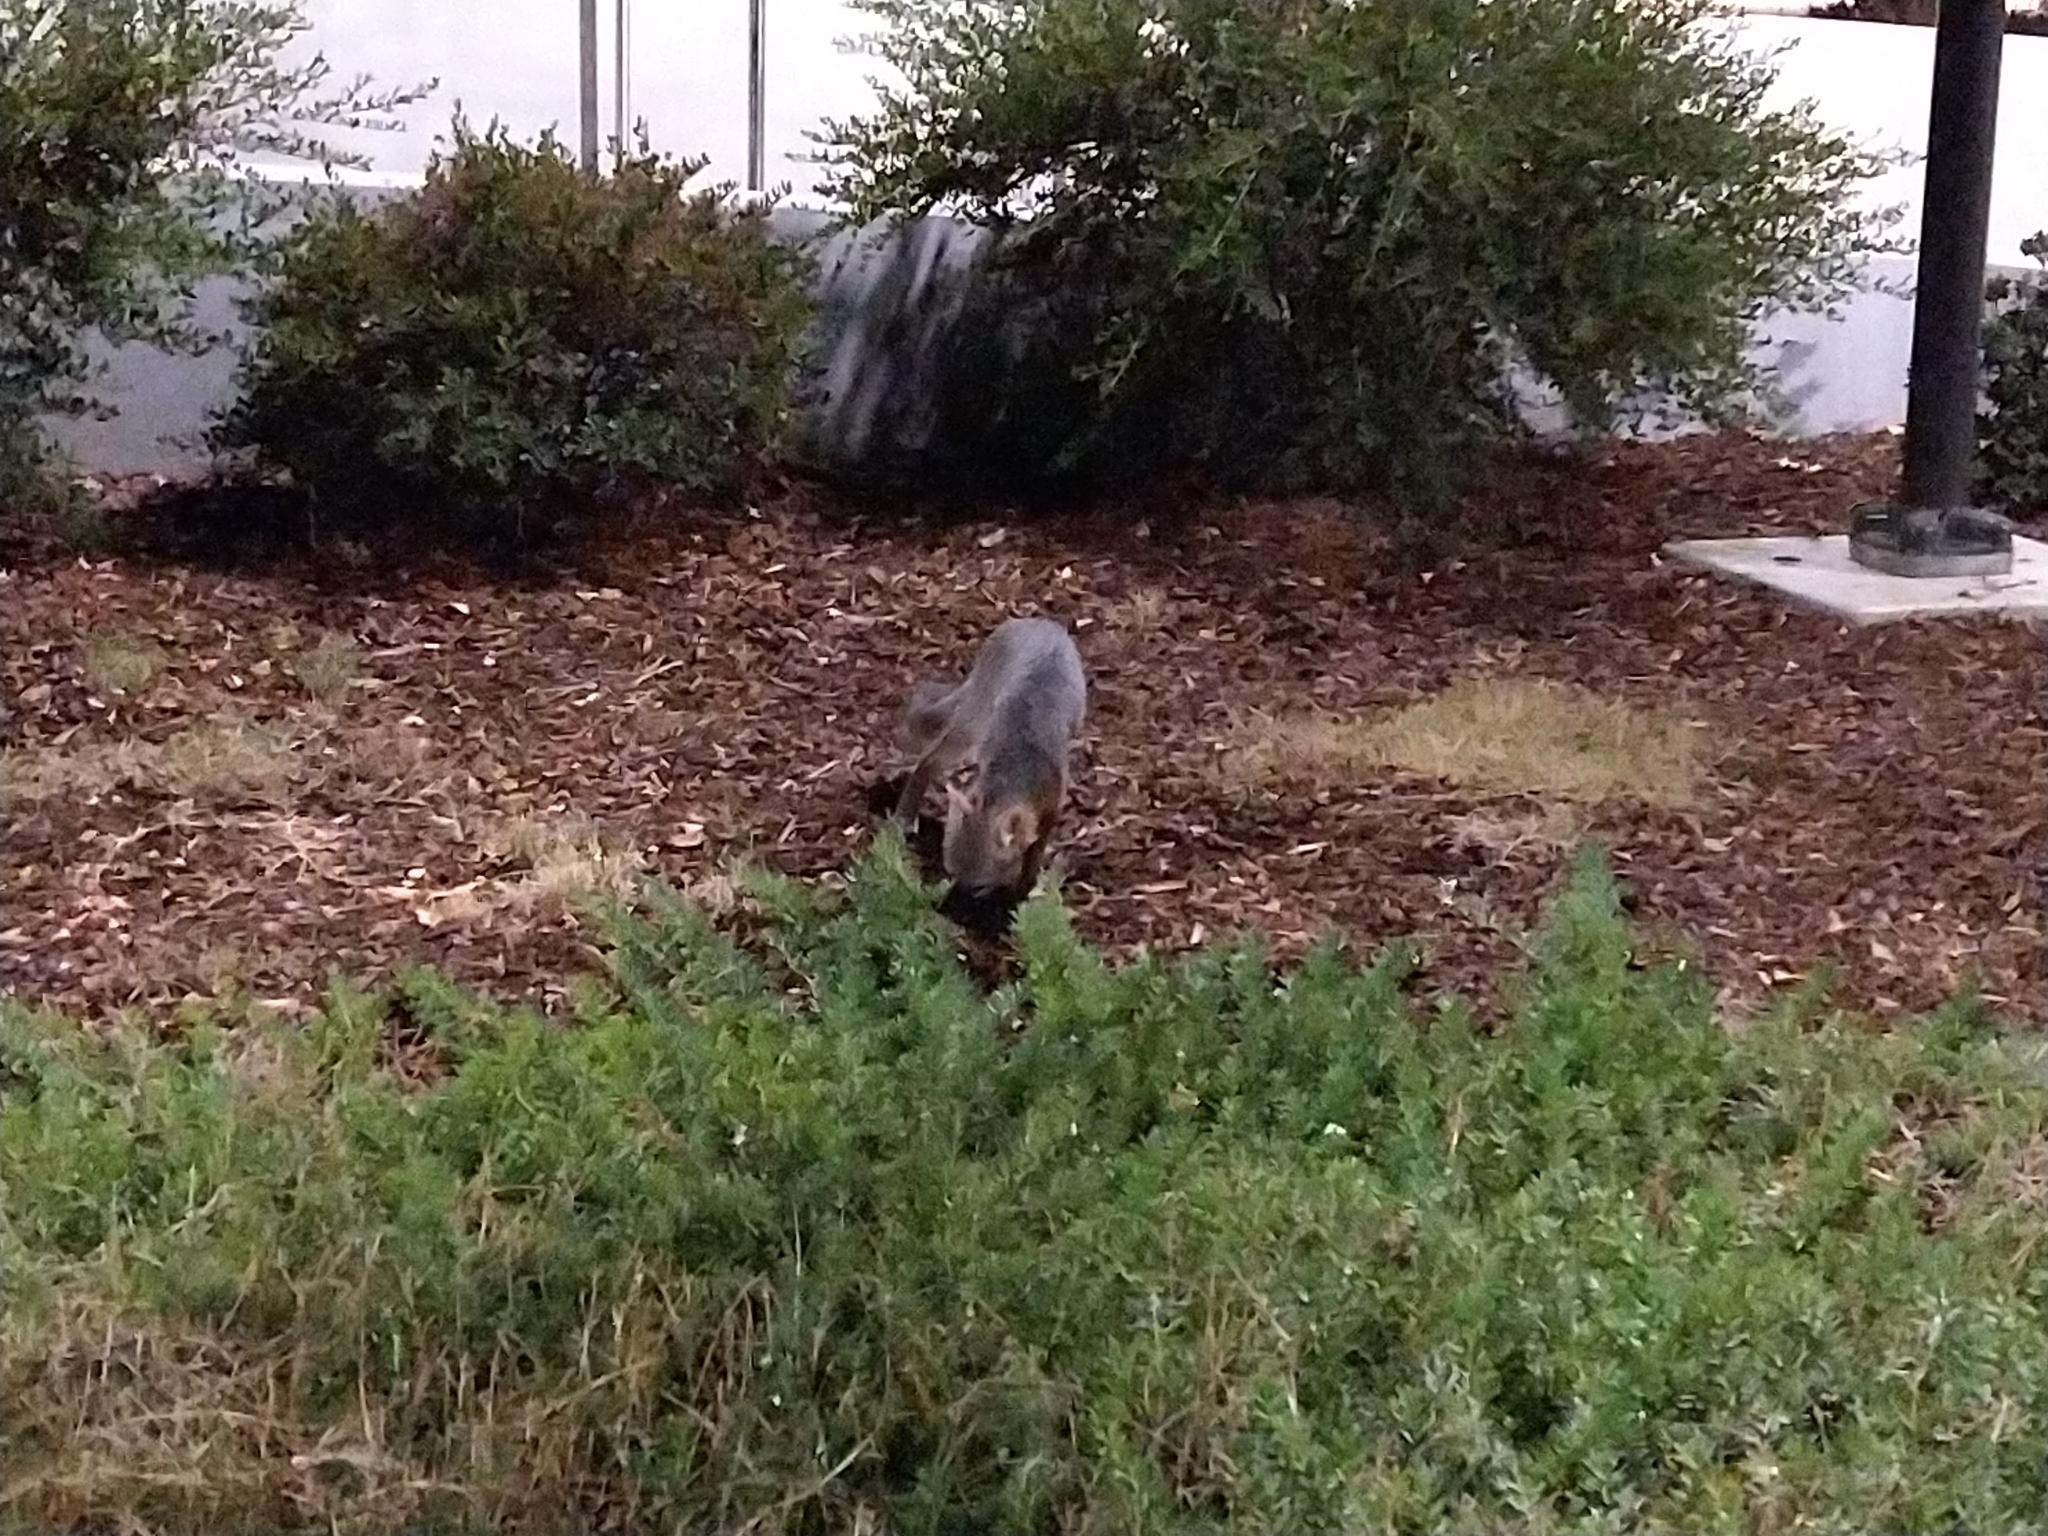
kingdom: Animalia
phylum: Chordata
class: Mammalia
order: Carnivora
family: Canidae
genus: Urocyon
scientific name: Urocyon cinereoargenteus
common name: Gray fox
